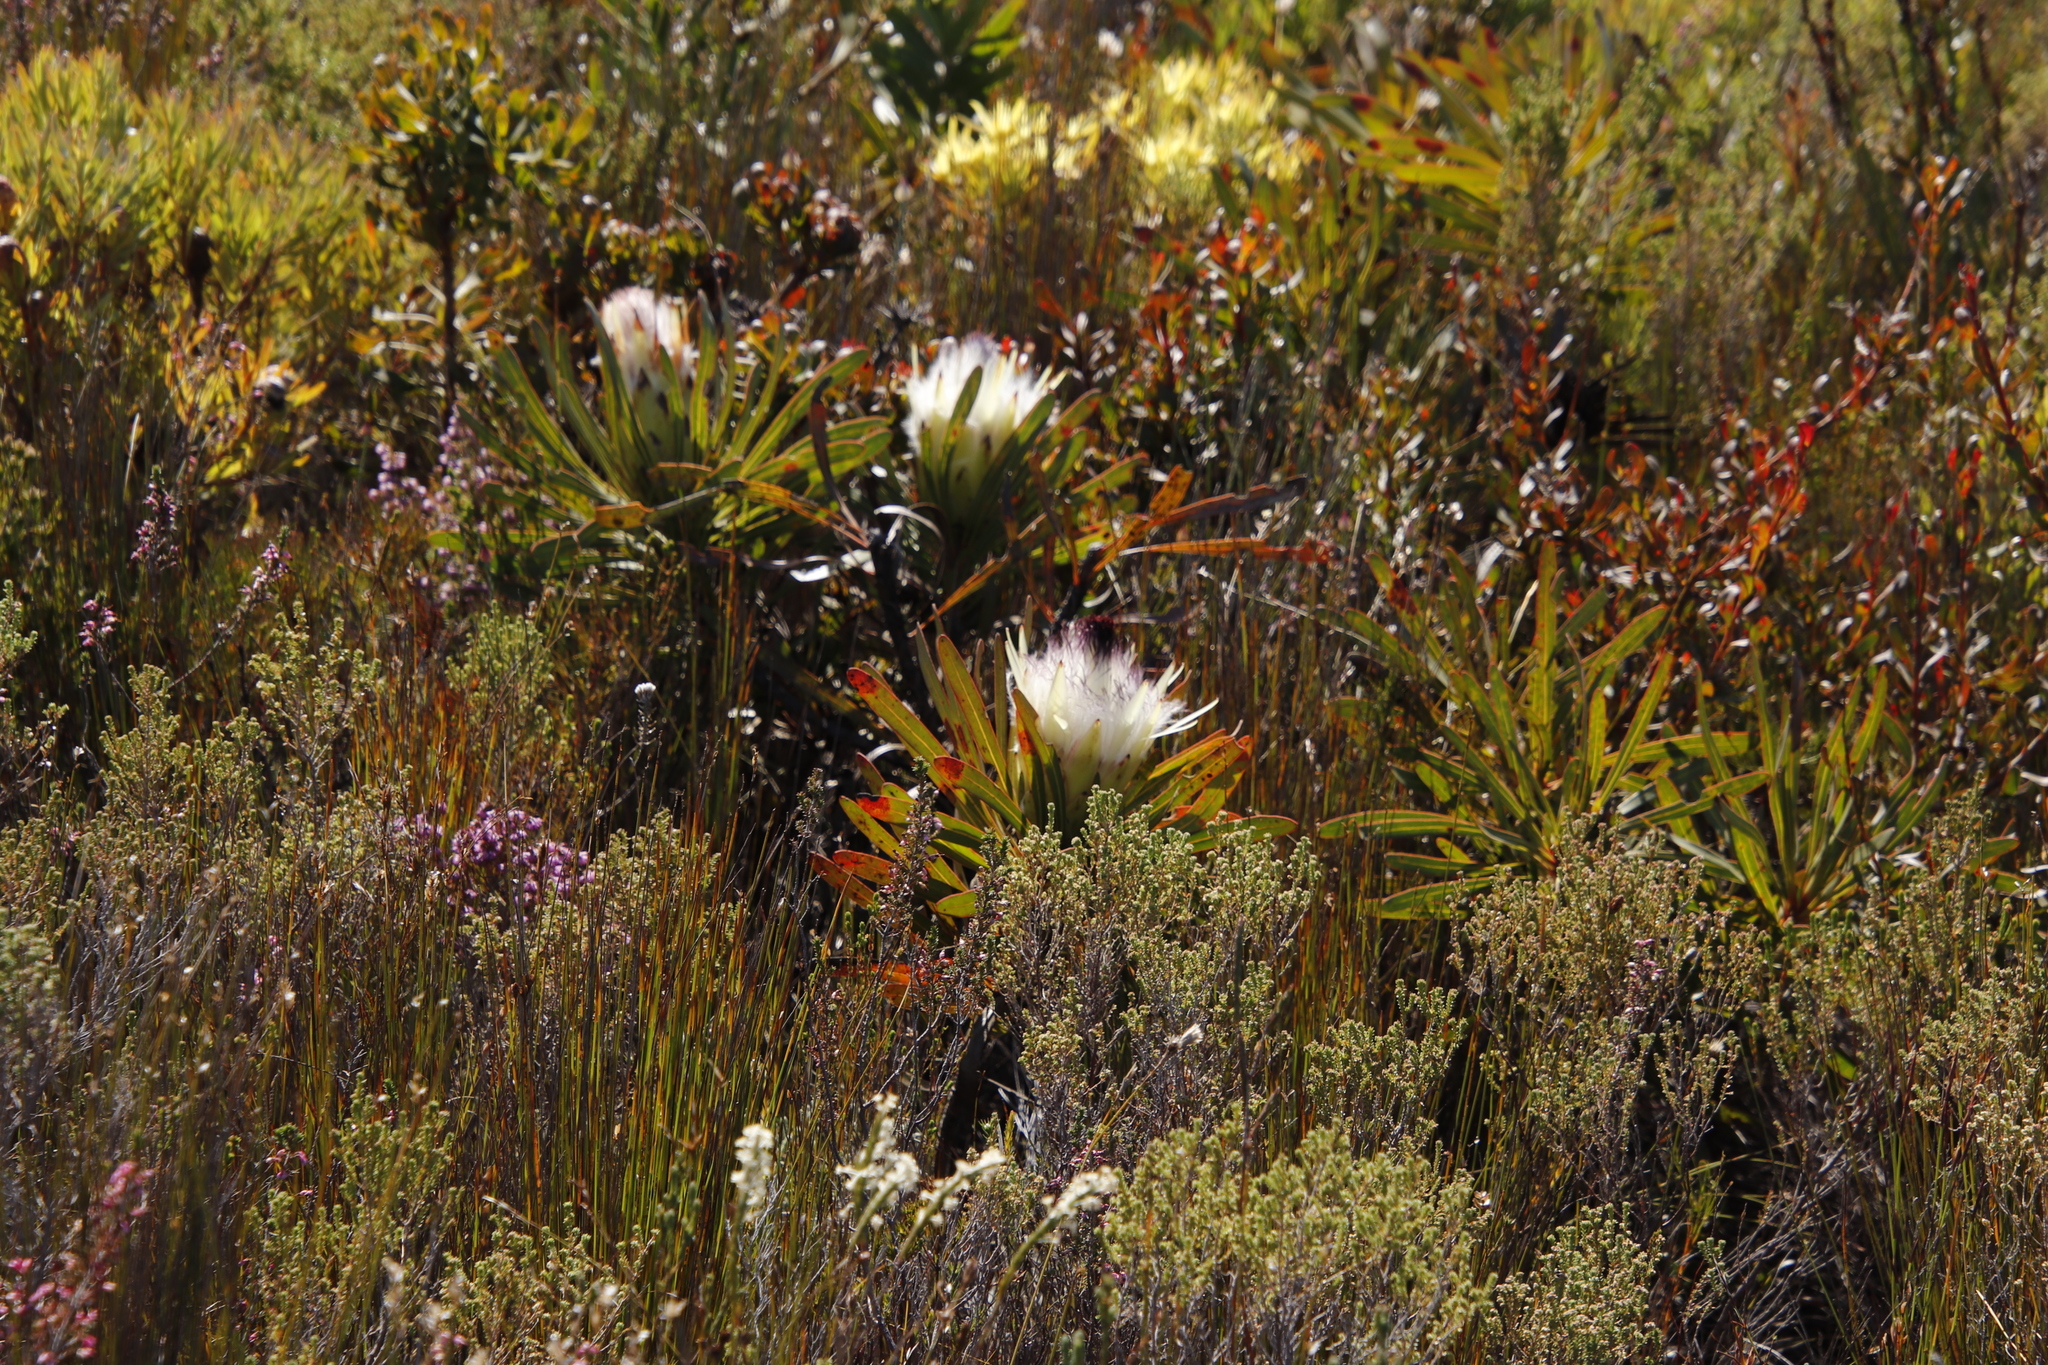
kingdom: Plantae
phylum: Tracheophyta
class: Magnoliopsida
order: Proteales
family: Proteaceae
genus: Protea
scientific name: Protea longifolia
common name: Long-leaf sugarbush
